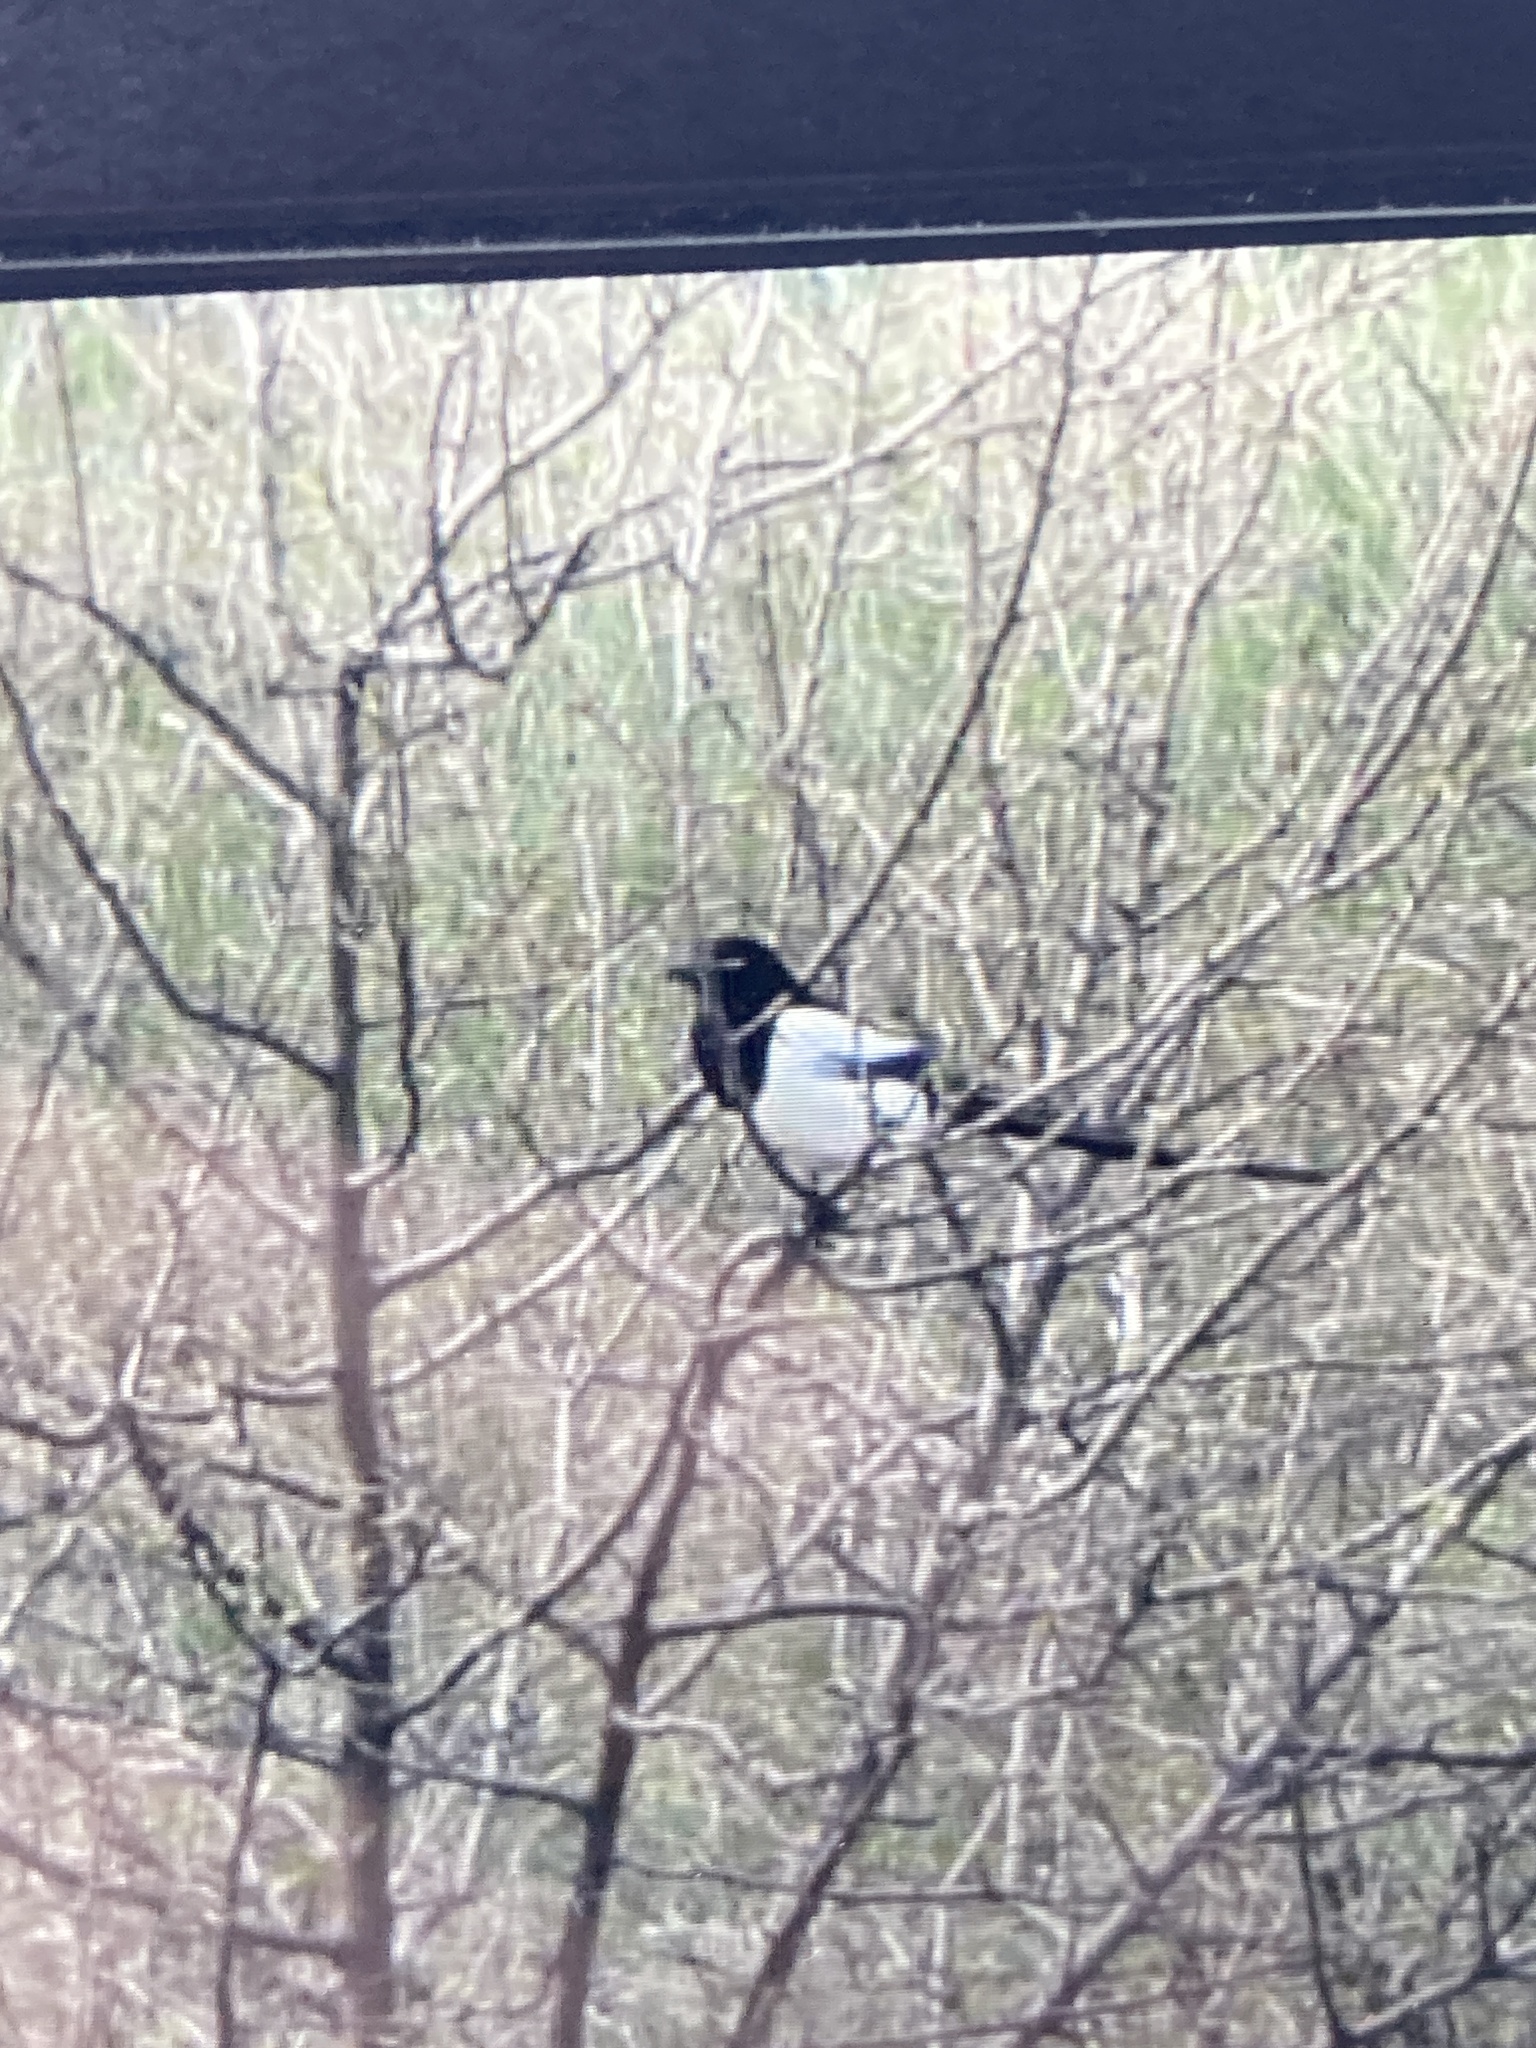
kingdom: Animalia
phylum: Chordata
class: Aves
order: Passeriformes
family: Corvidae
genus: Pica
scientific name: Pica pica
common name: Eurasian magpie
